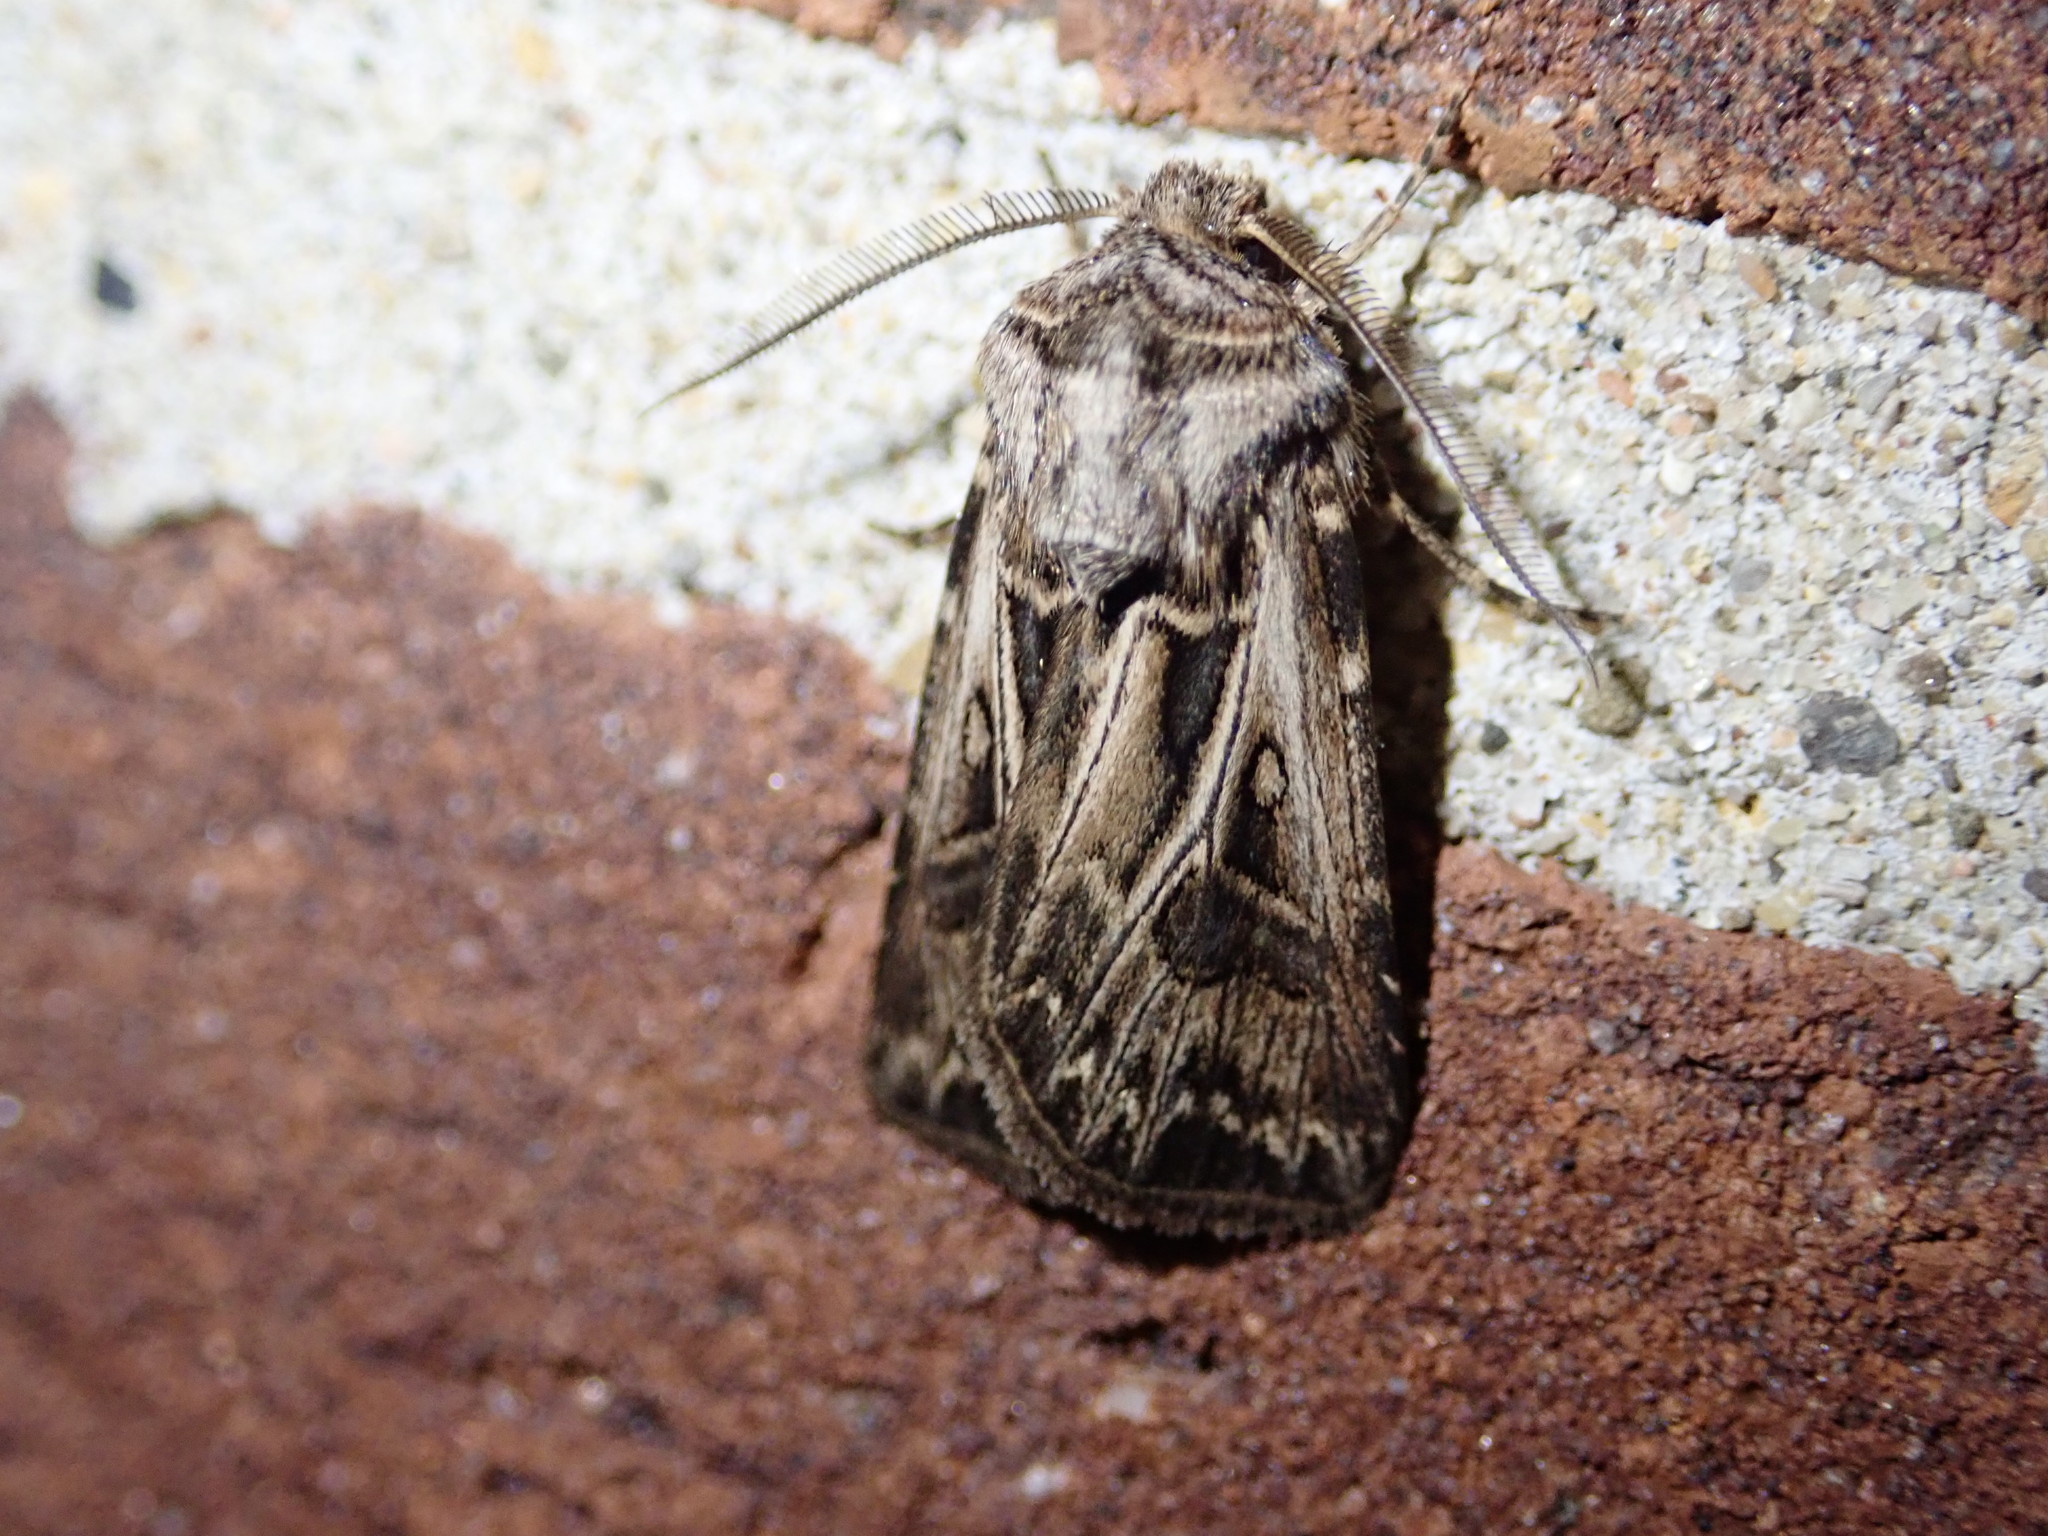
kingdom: Animalia
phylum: Arthropoda
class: Insecta
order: Lepidoptera
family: Noctuidae
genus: Agrotis
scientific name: Agrotis gladiaria
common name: Claybacked cutworm
